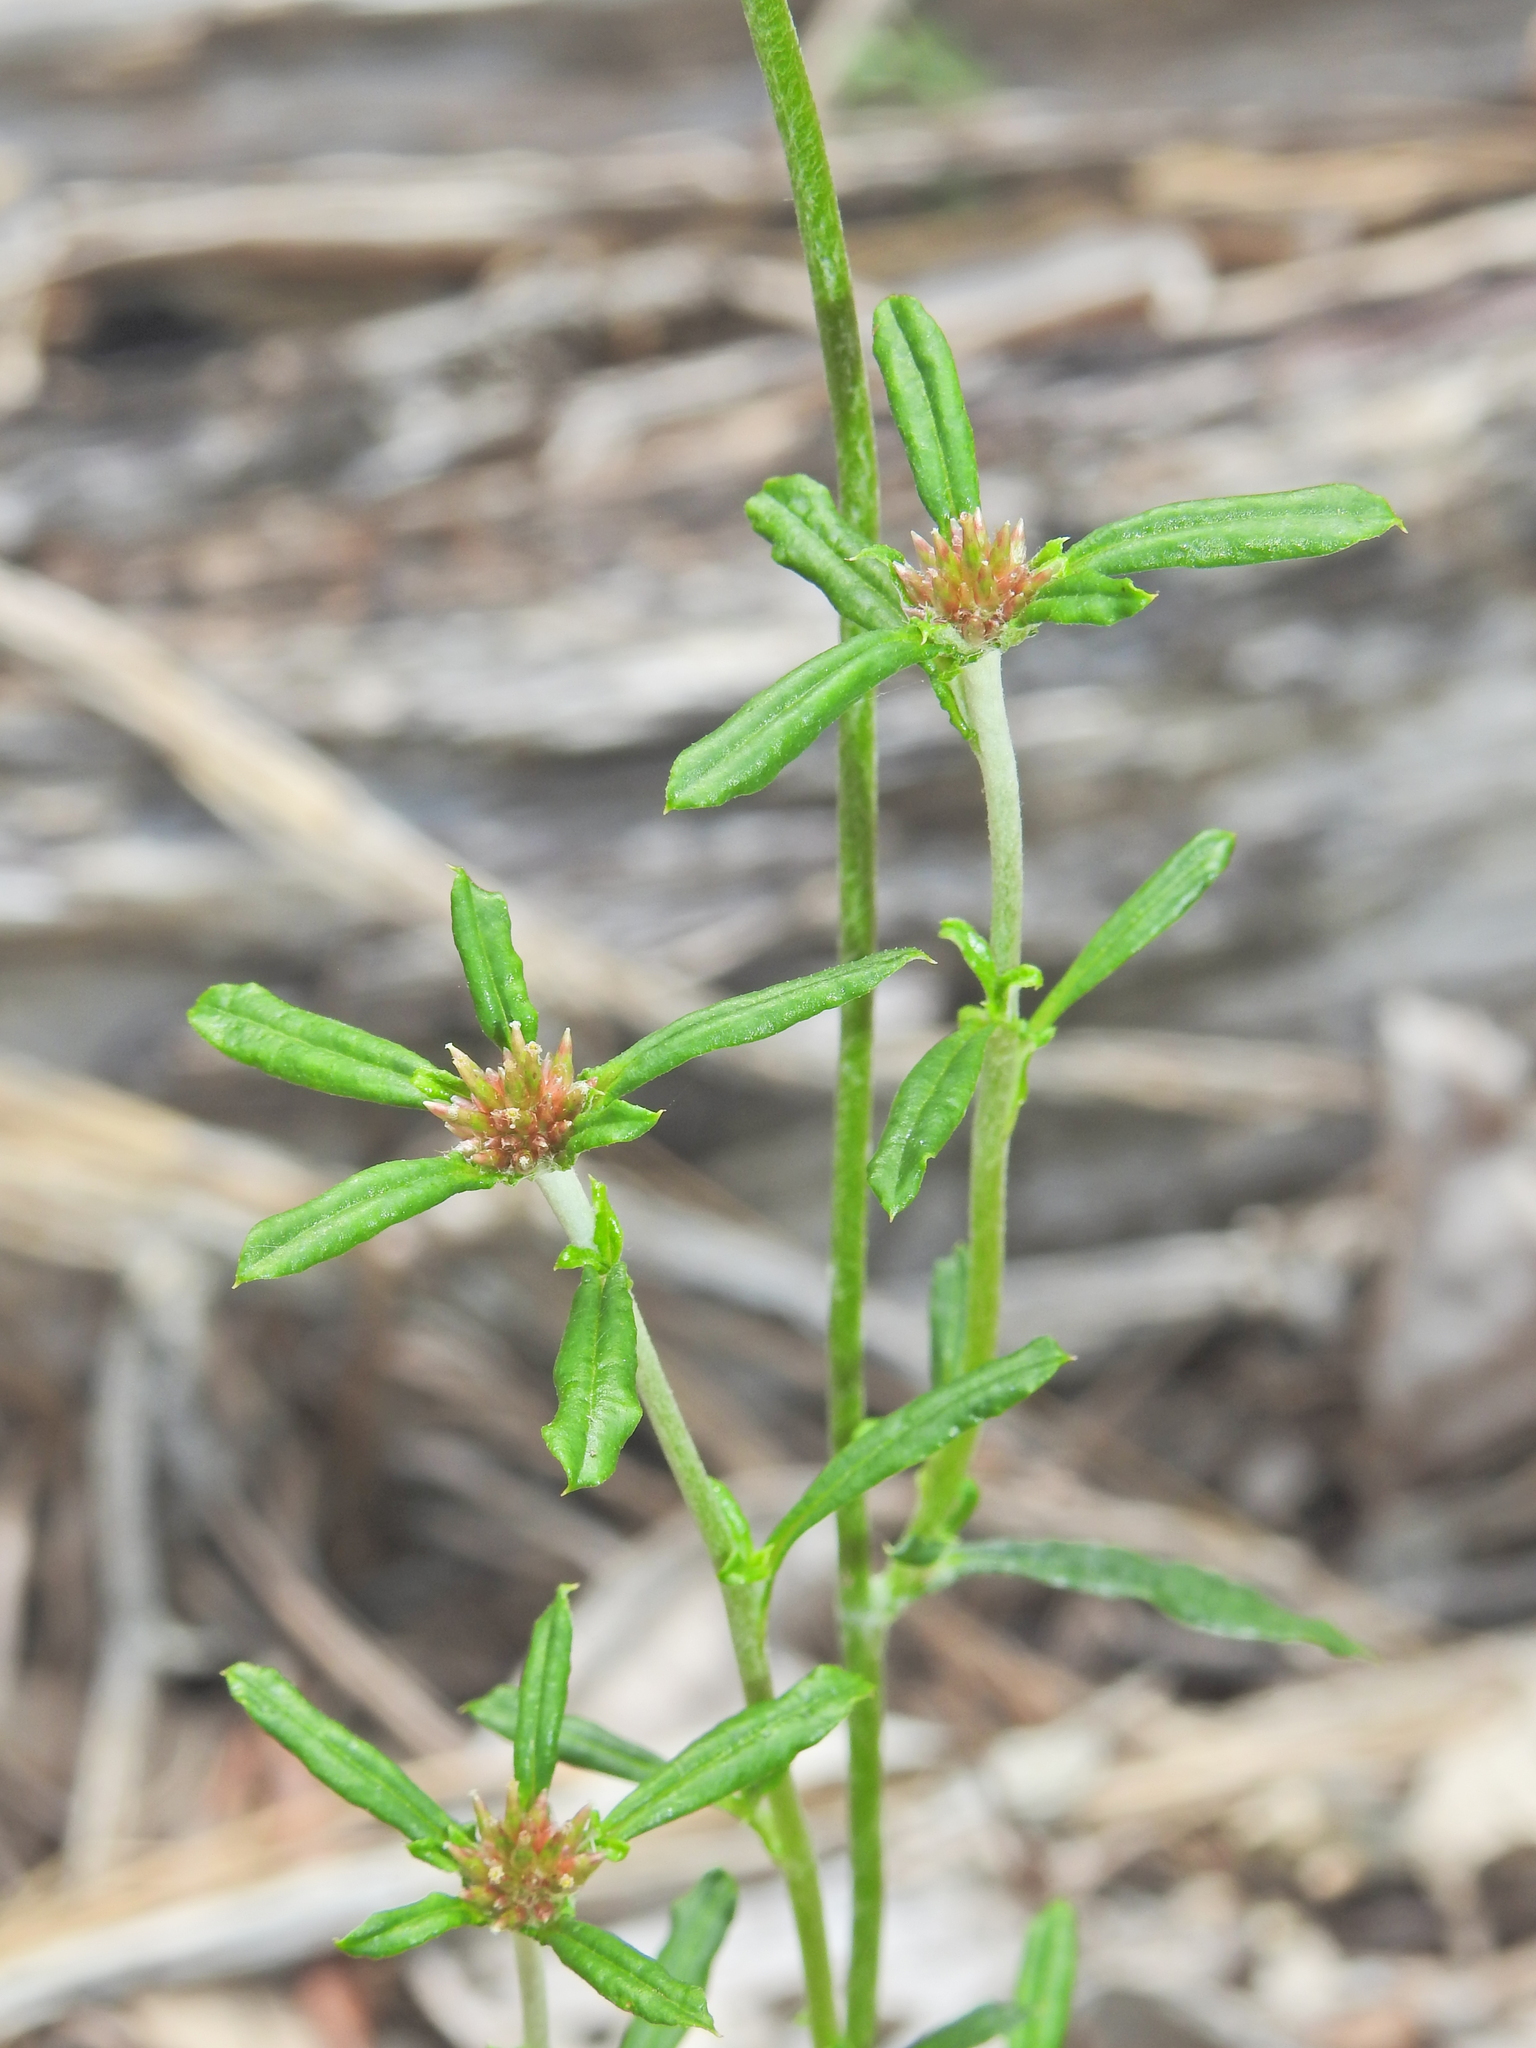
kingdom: Plantae
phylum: Tracheophyta
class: Magnoliopsida
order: Asterales
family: Asteraceae
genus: Euchiton
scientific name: Euchiton sphaericus
